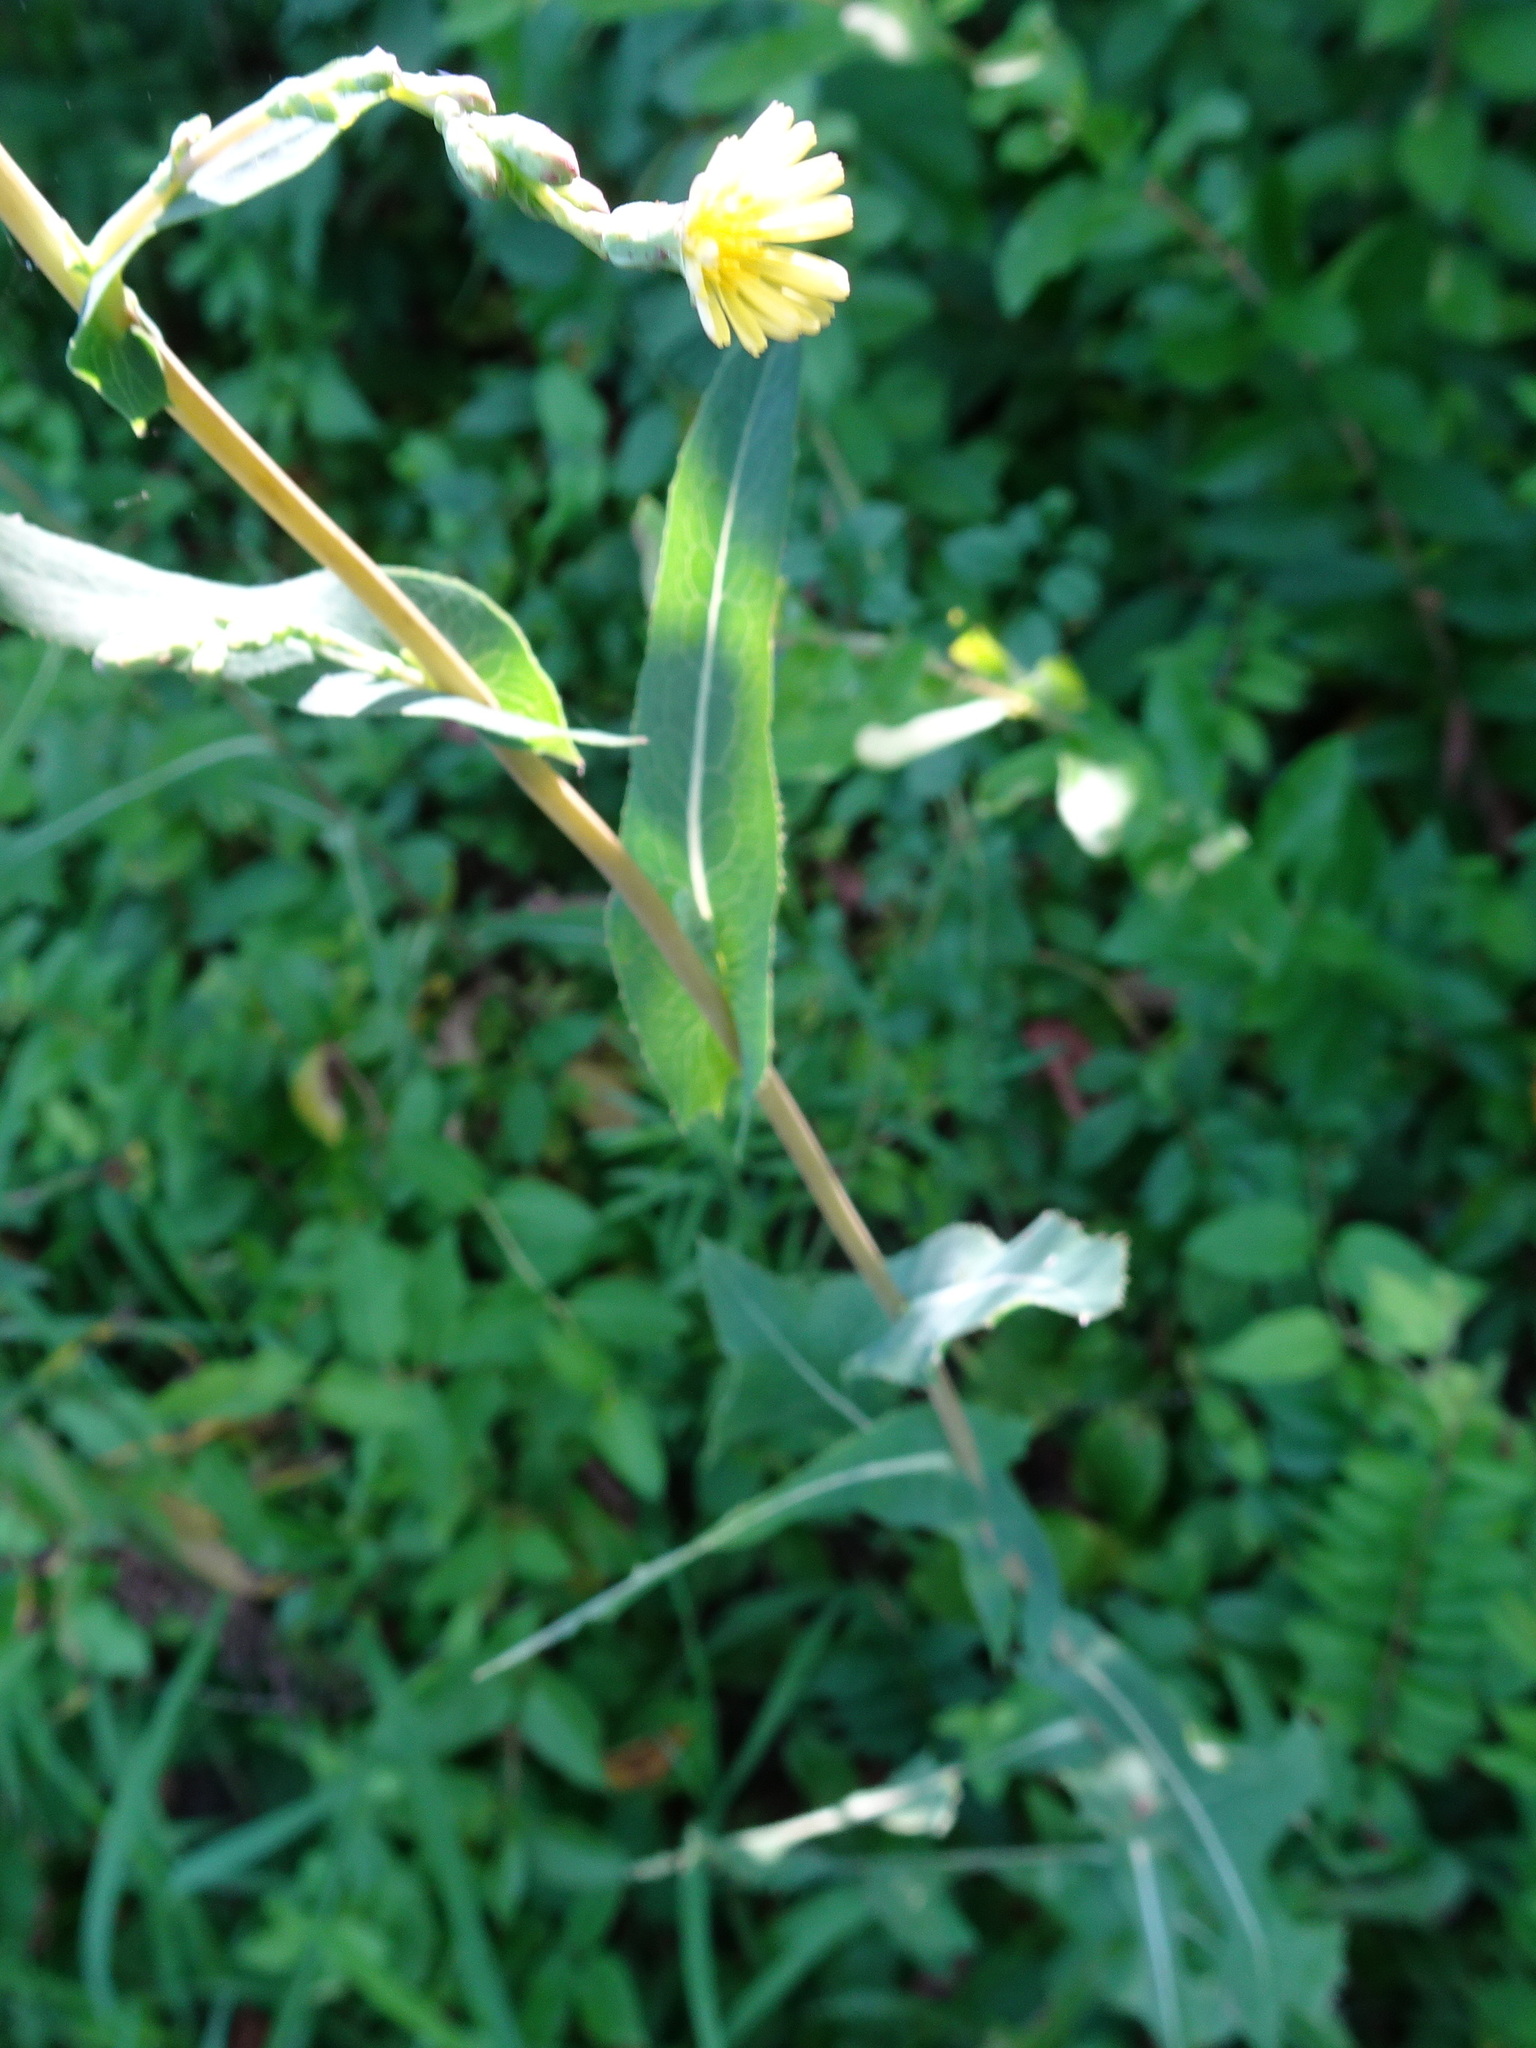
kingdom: Plantae
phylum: Tracheophyta
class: Magnoliopsida
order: Asterales
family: Asteraceae
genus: Lactuca
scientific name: Lactuca serriola
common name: Prickly lettuce
